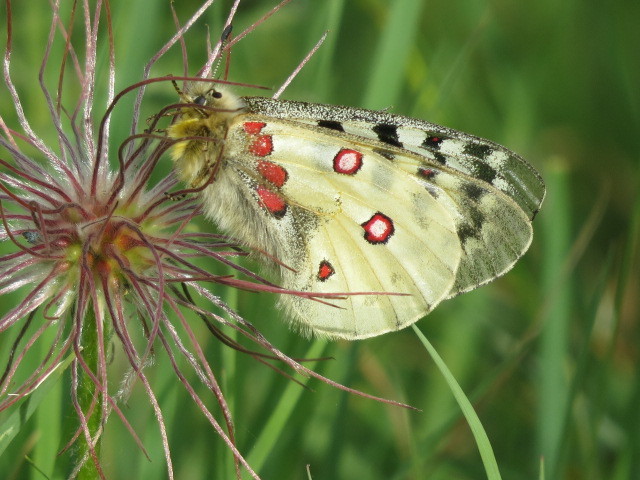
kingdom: Animalia
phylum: Arthropoda
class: Insecta
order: Lepidoptera
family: Papilionidae
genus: Parnassius
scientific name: Parnassius corybas
